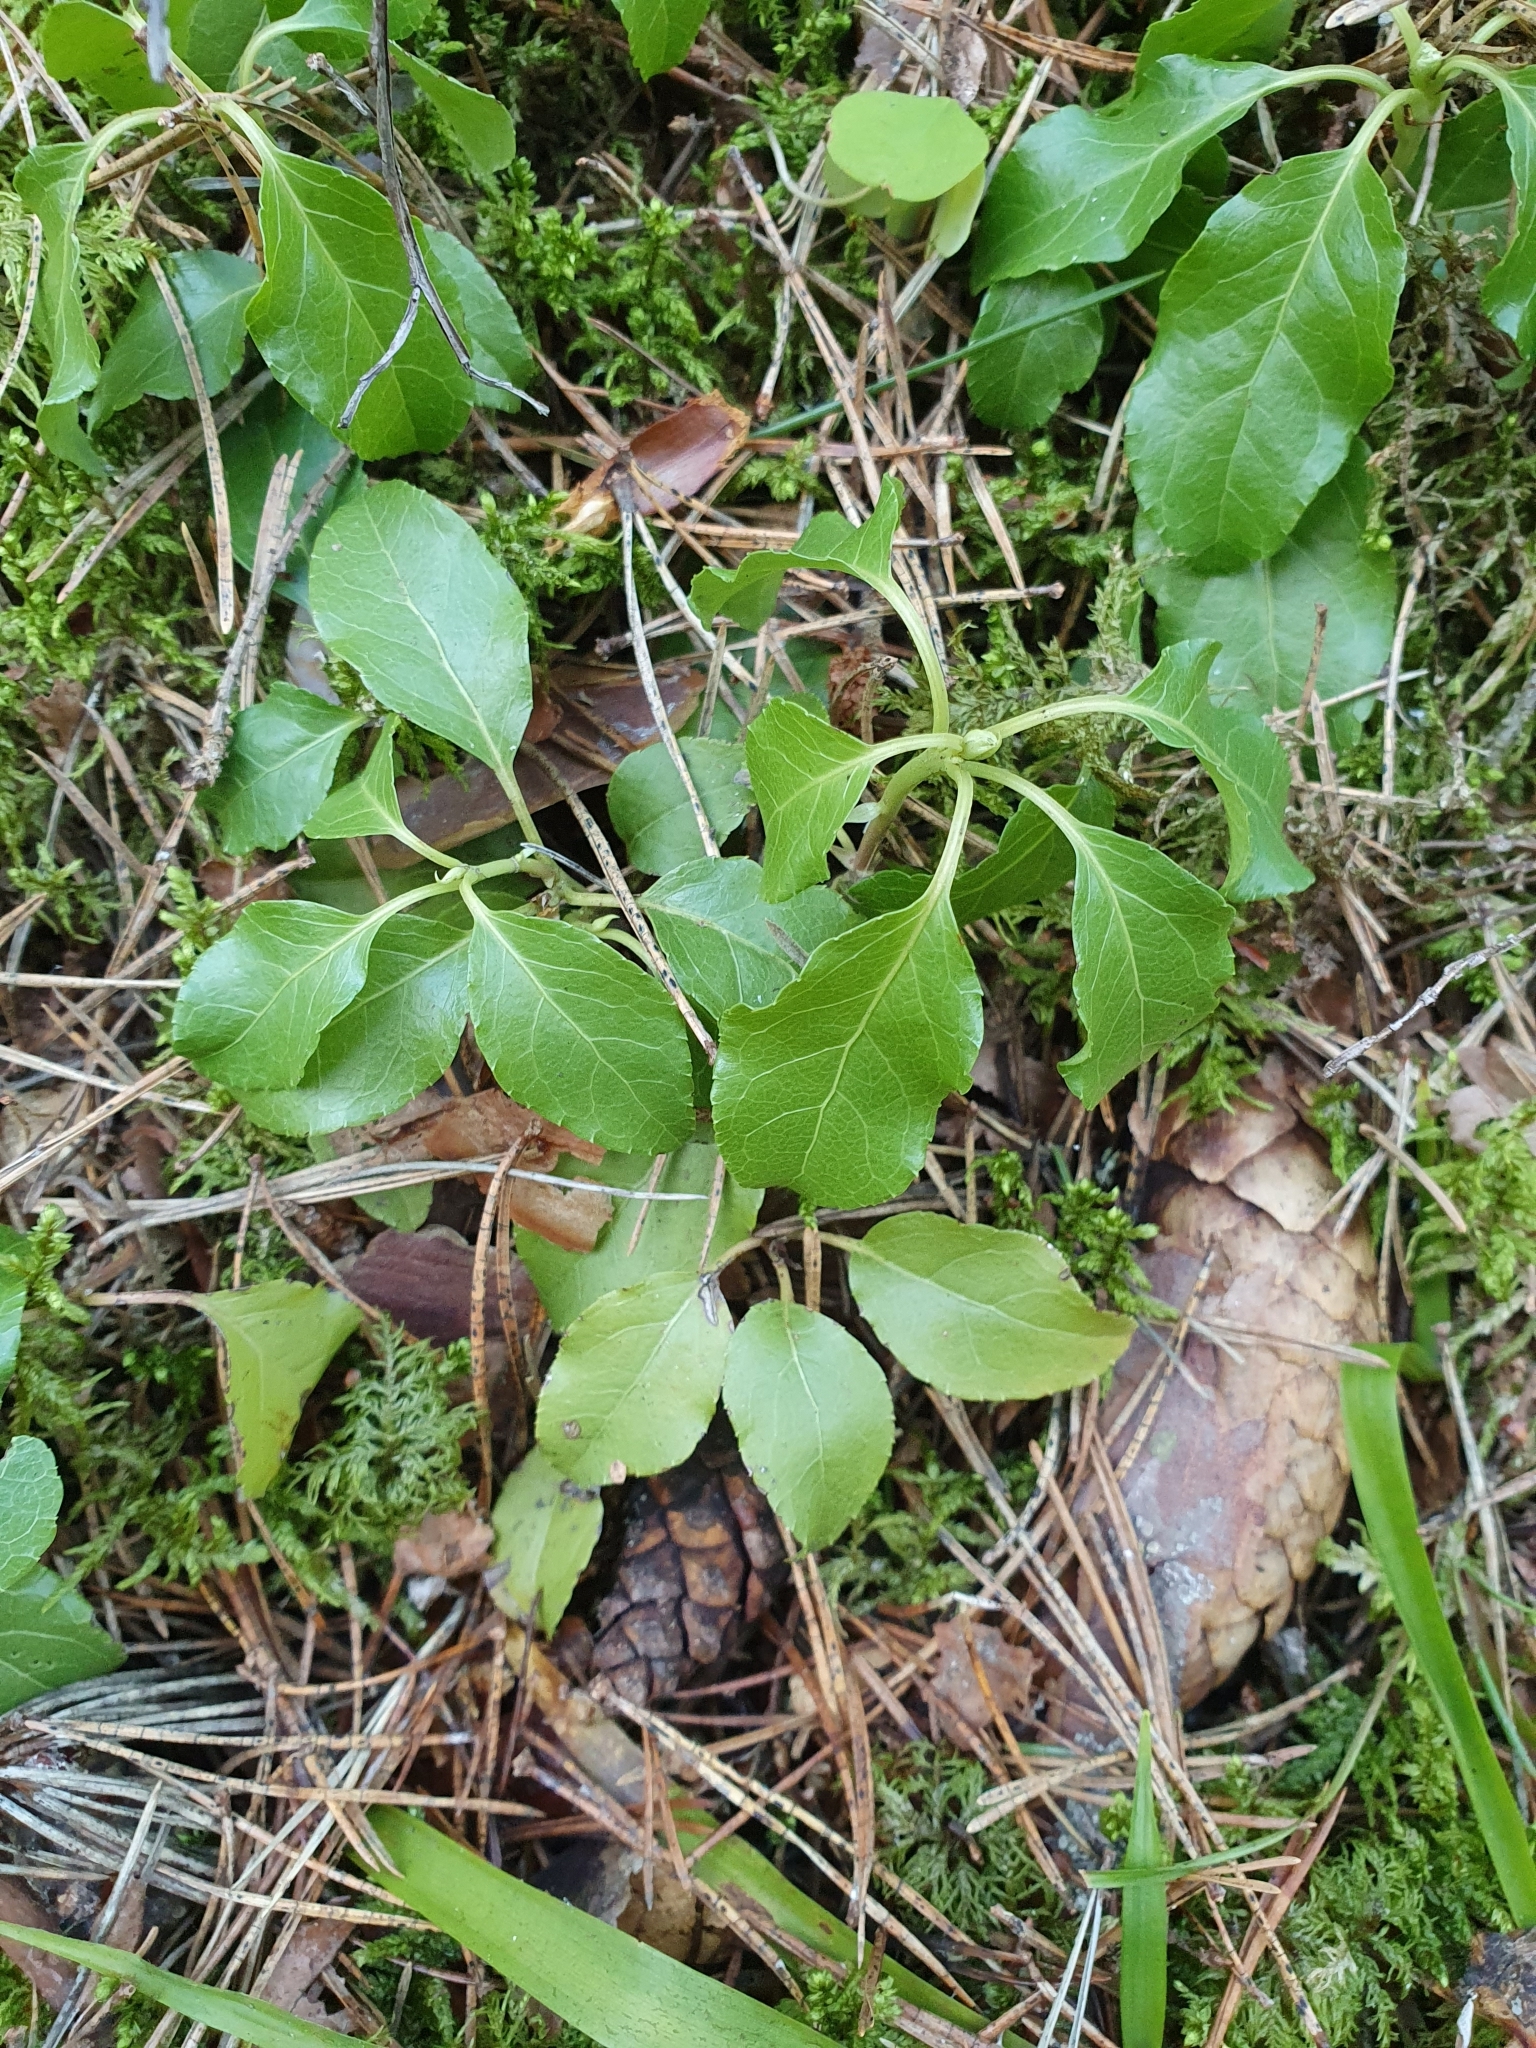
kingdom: Plantae
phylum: Tracheophyta
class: Magnoliopsida
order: Ericales
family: Ericaceae
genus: Orthilia
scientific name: Orthilia secunda
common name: One-sided orthilia
